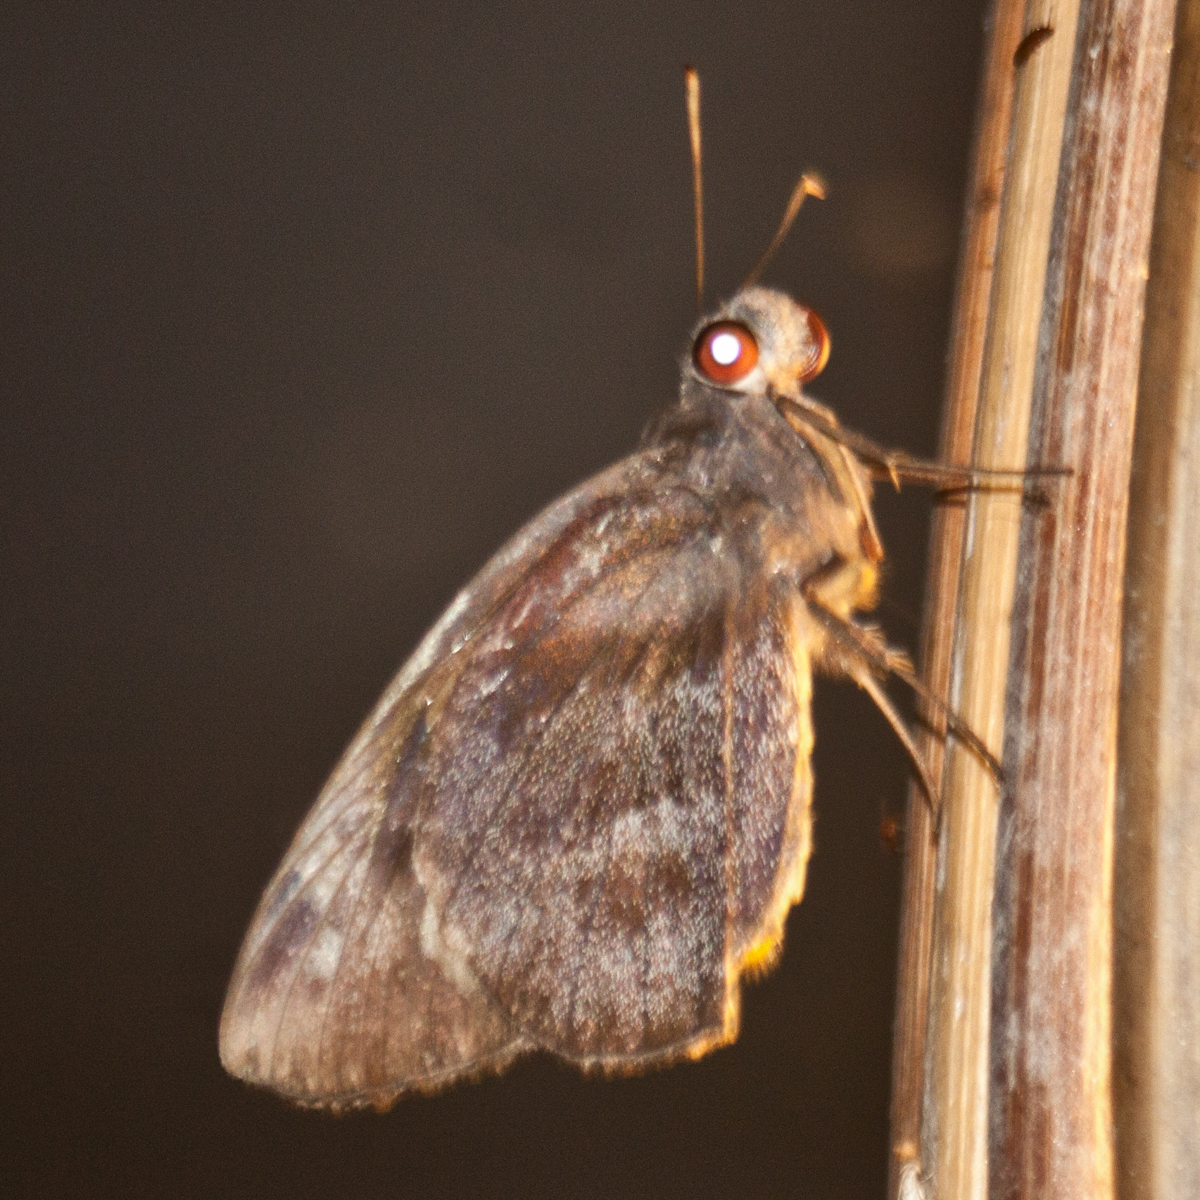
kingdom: Animalia
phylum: Arthropoda
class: Insecta
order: Lepidoptera
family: Hesperiidae
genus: Gangara
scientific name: Gangara thyrsis
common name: Giant redeye
